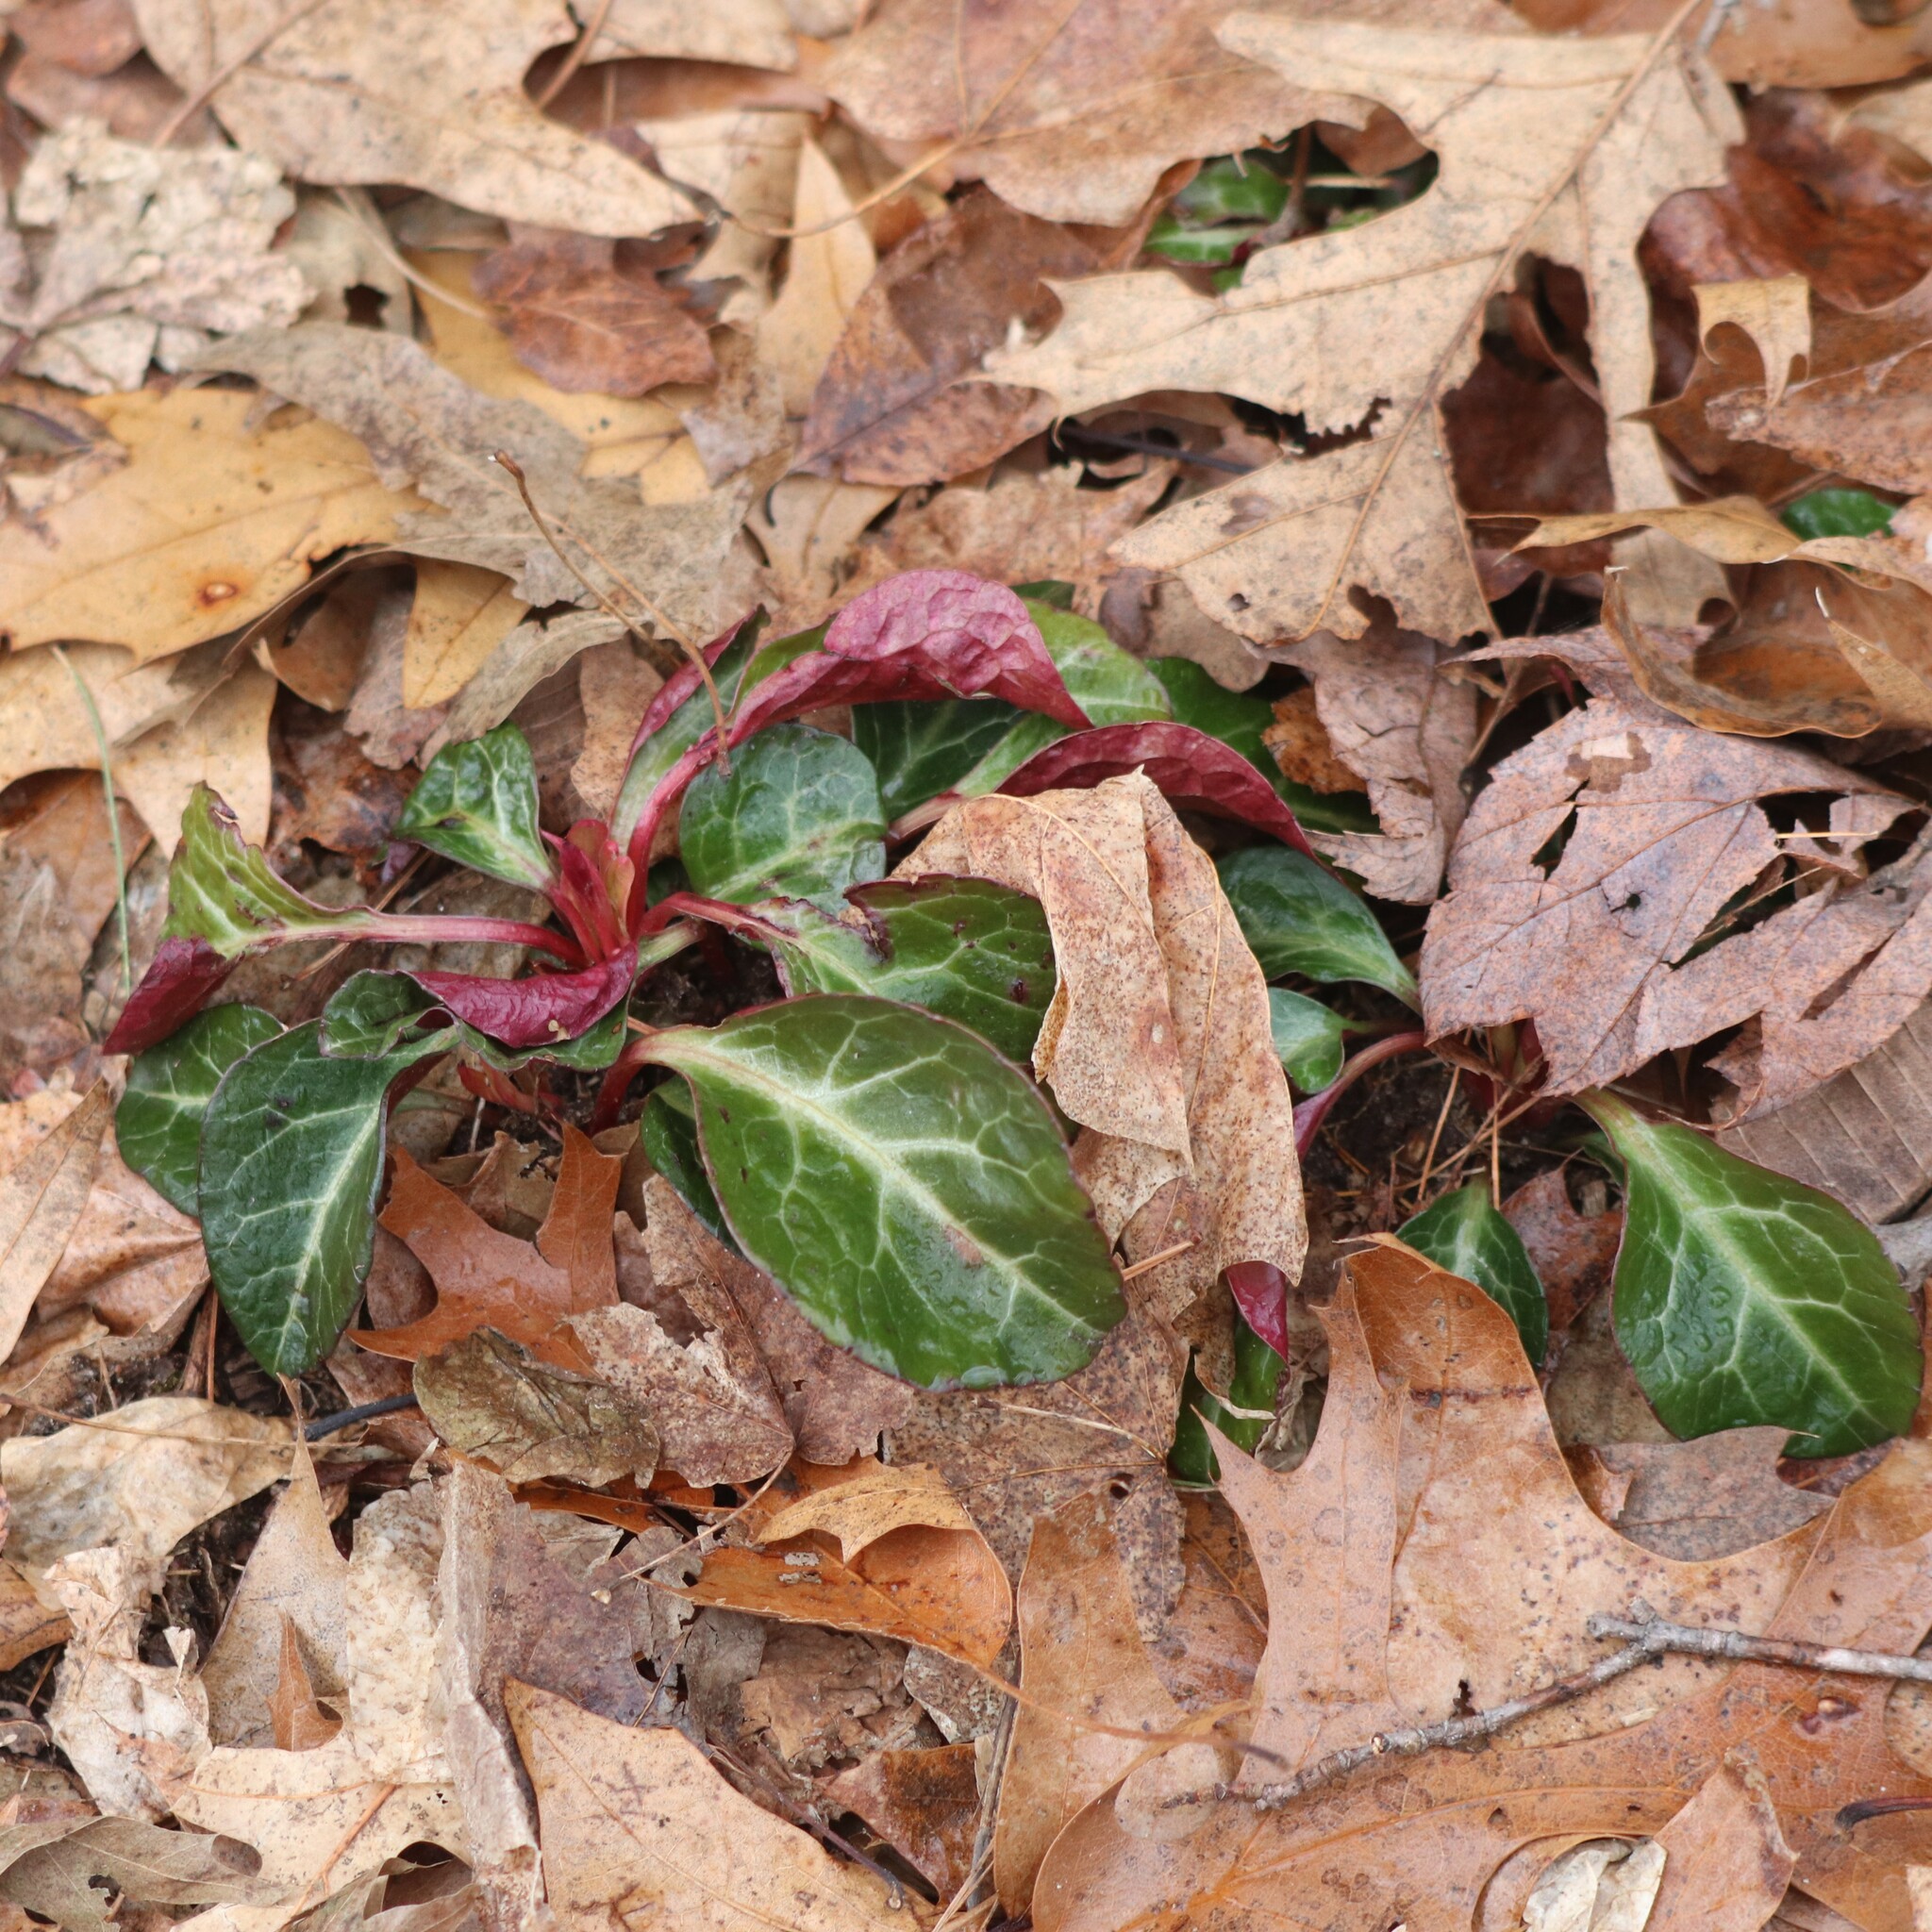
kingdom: Plantae
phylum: Tracheophyta
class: Magnoliopsida
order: Ericales
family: Ericaceae
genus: Pyrola
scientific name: Pyrola americana
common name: American wintergreen
